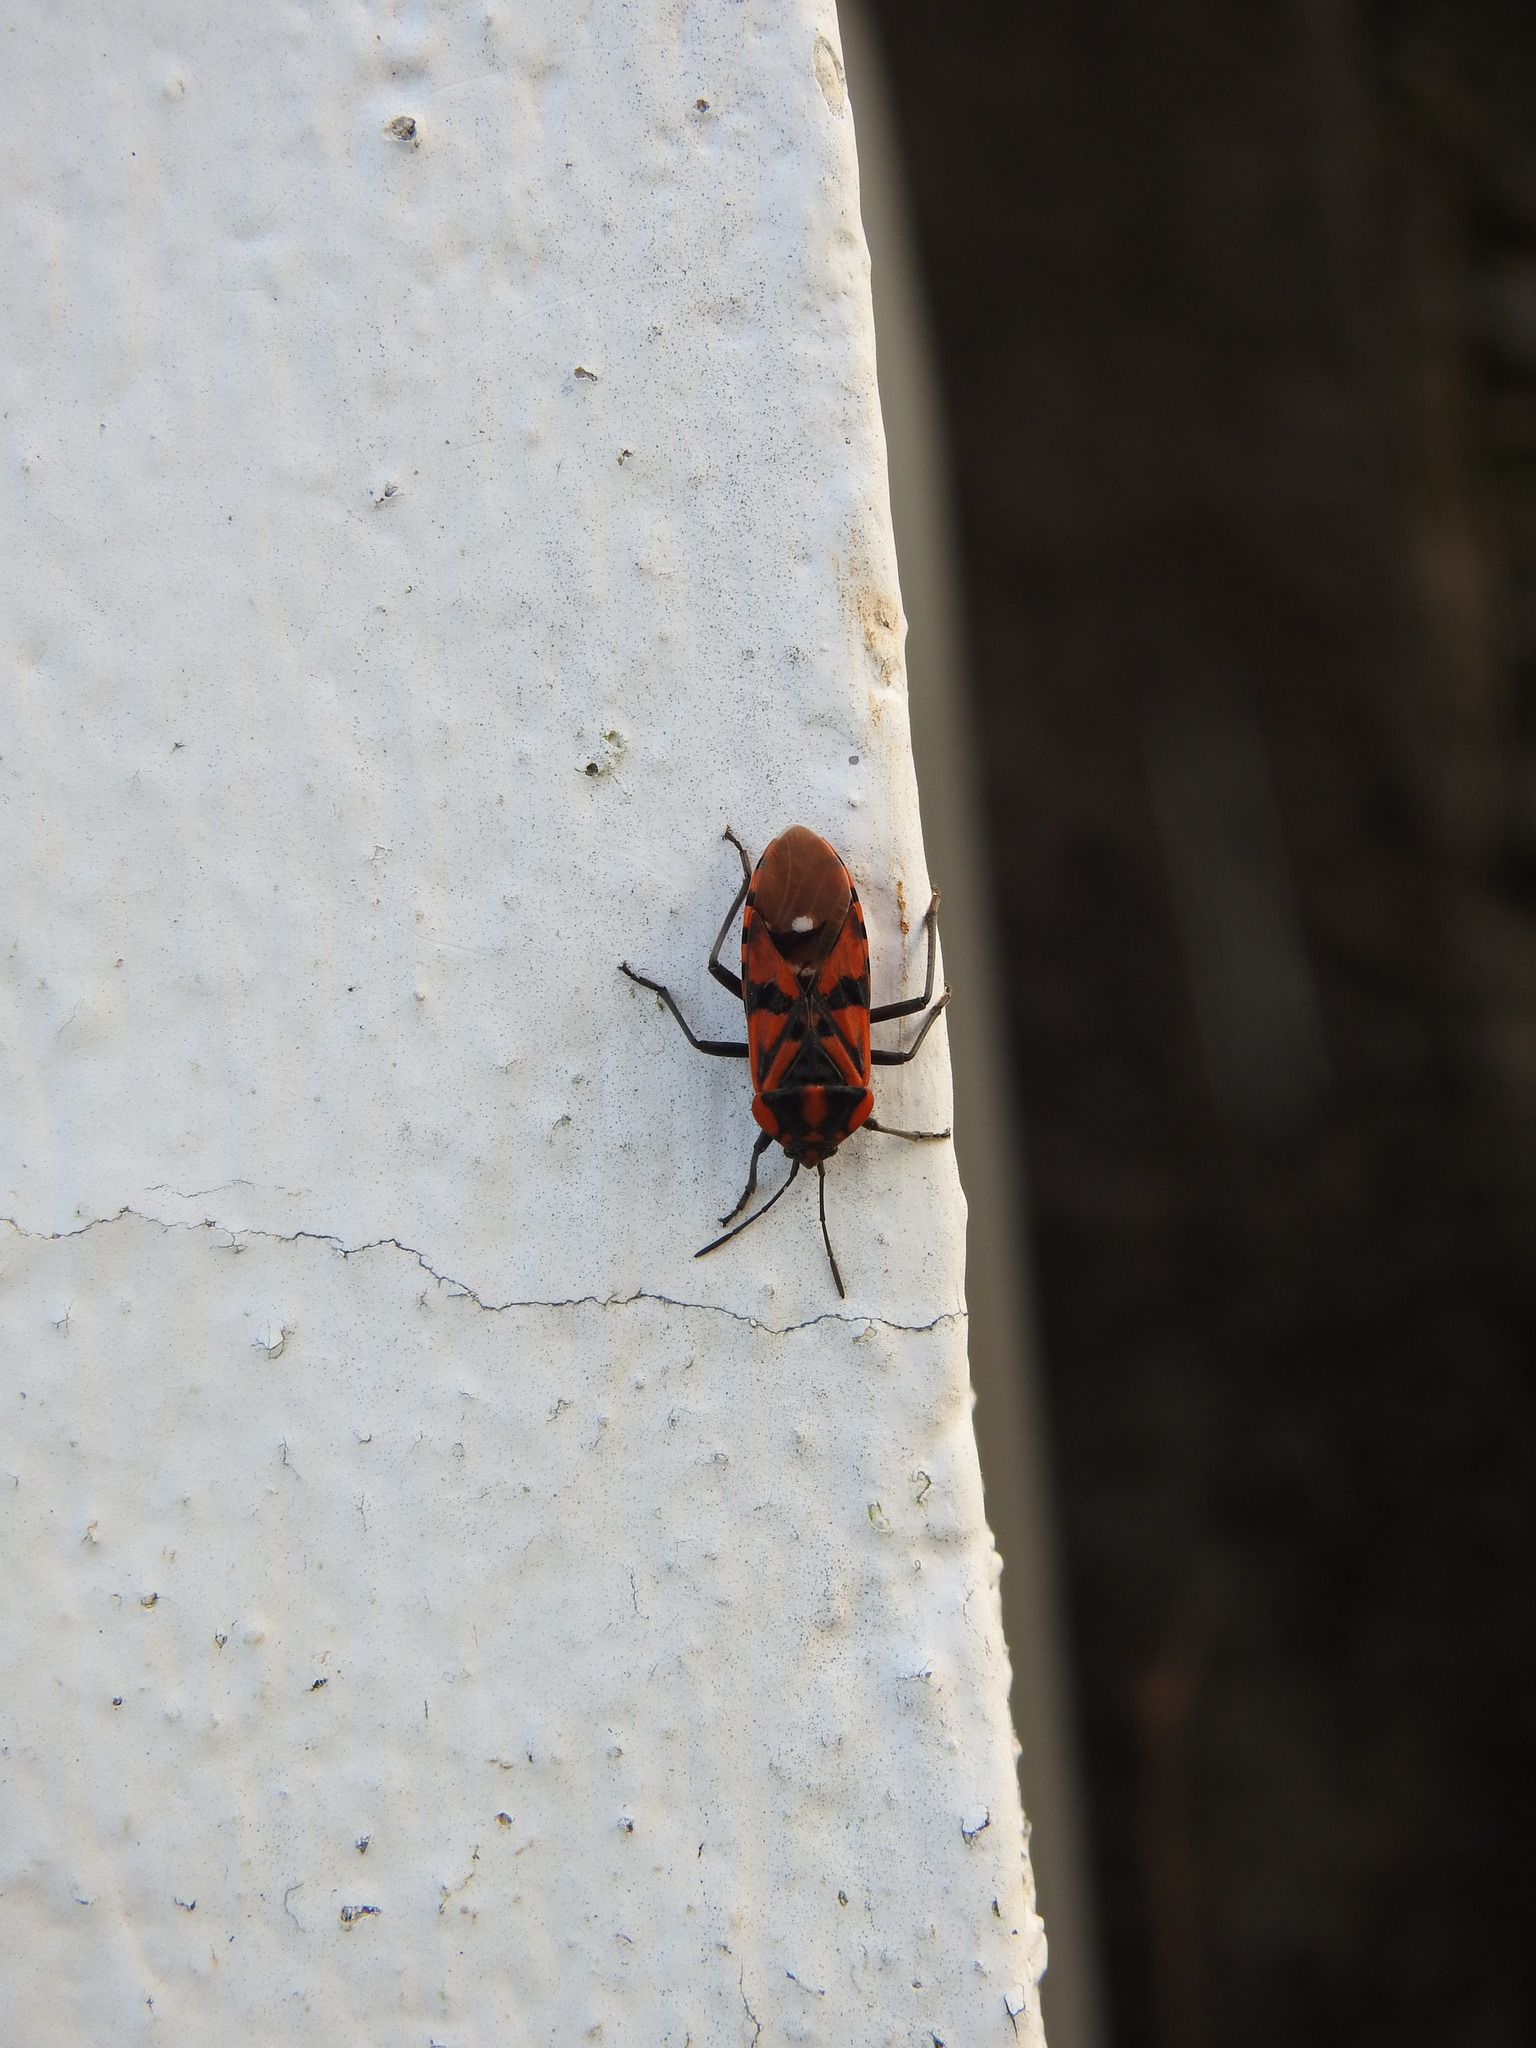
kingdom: Animalia
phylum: Arthropoda
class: Insecta
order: Hemiptera
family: Lygaeidae
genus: Spilostethus
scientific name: Spilostethus pandurus
